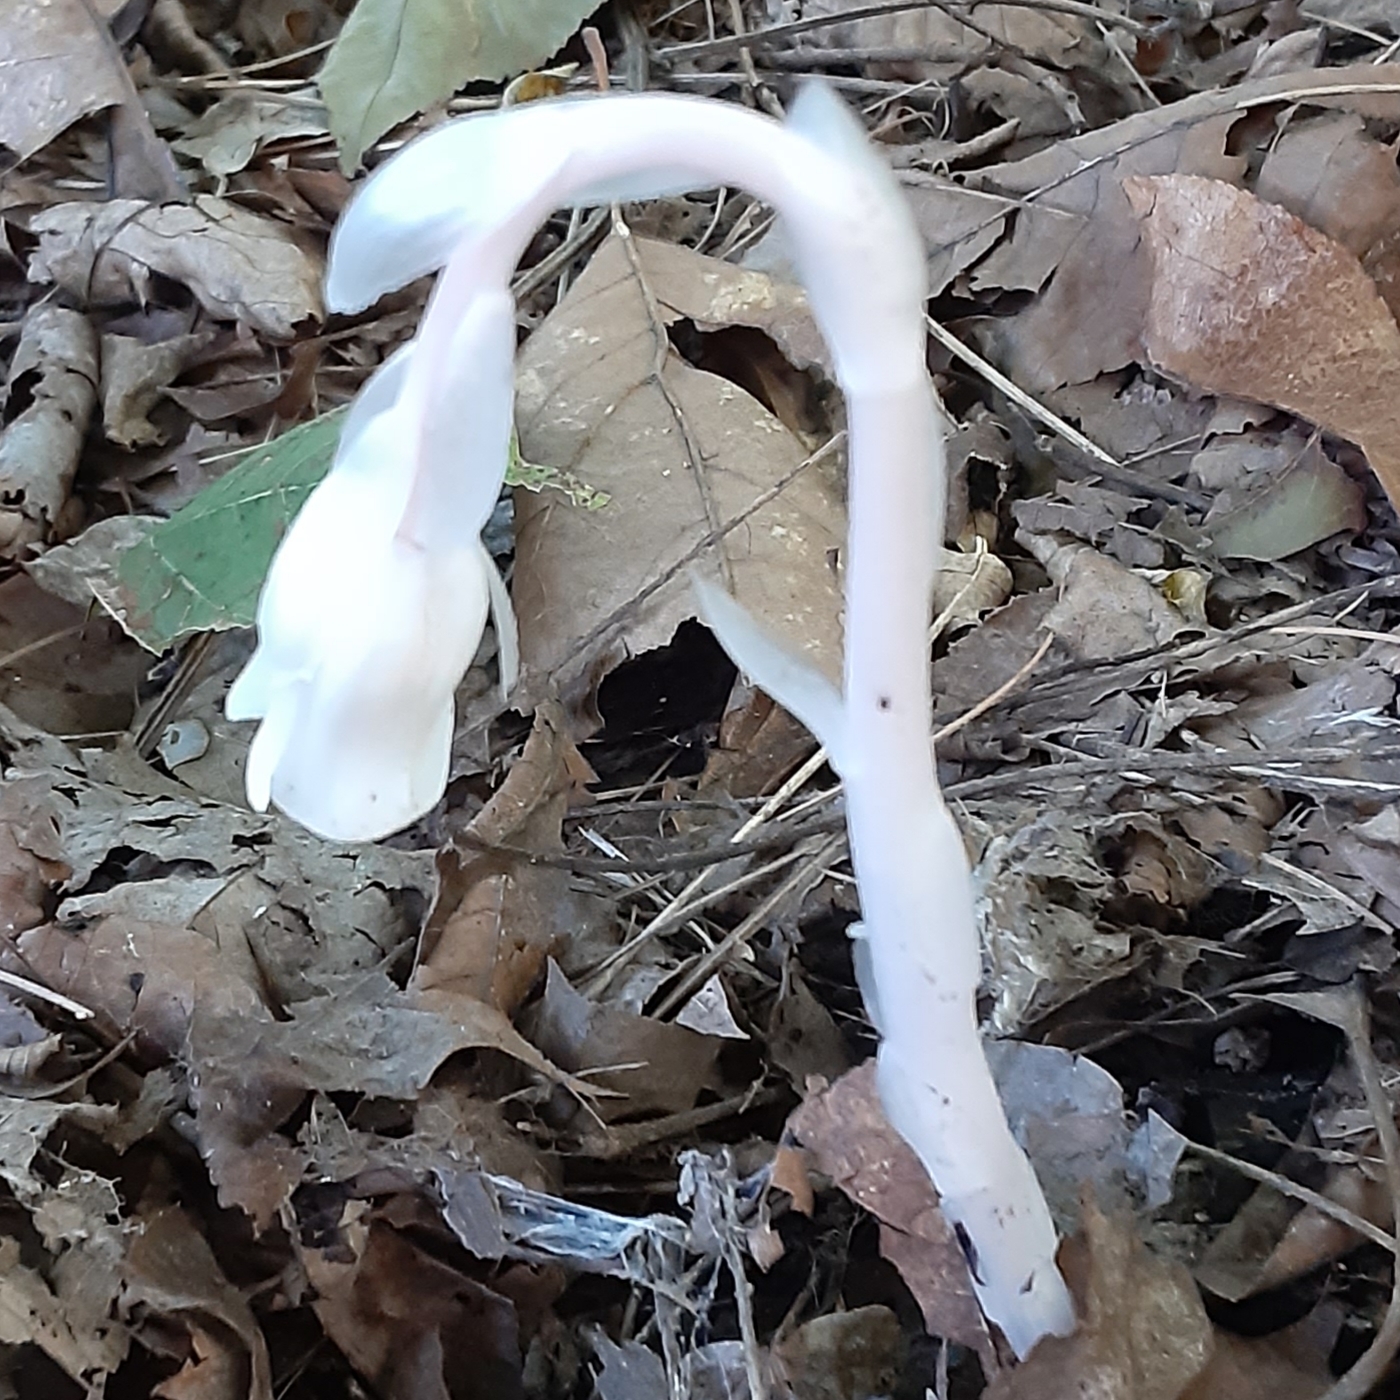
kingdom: Plantae
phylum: Tracheophyta
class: Magnoliopsida
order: Ericales
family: Ericaceae
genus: Monotropa
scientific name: Monotropa uniflora
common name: Convulsion root
